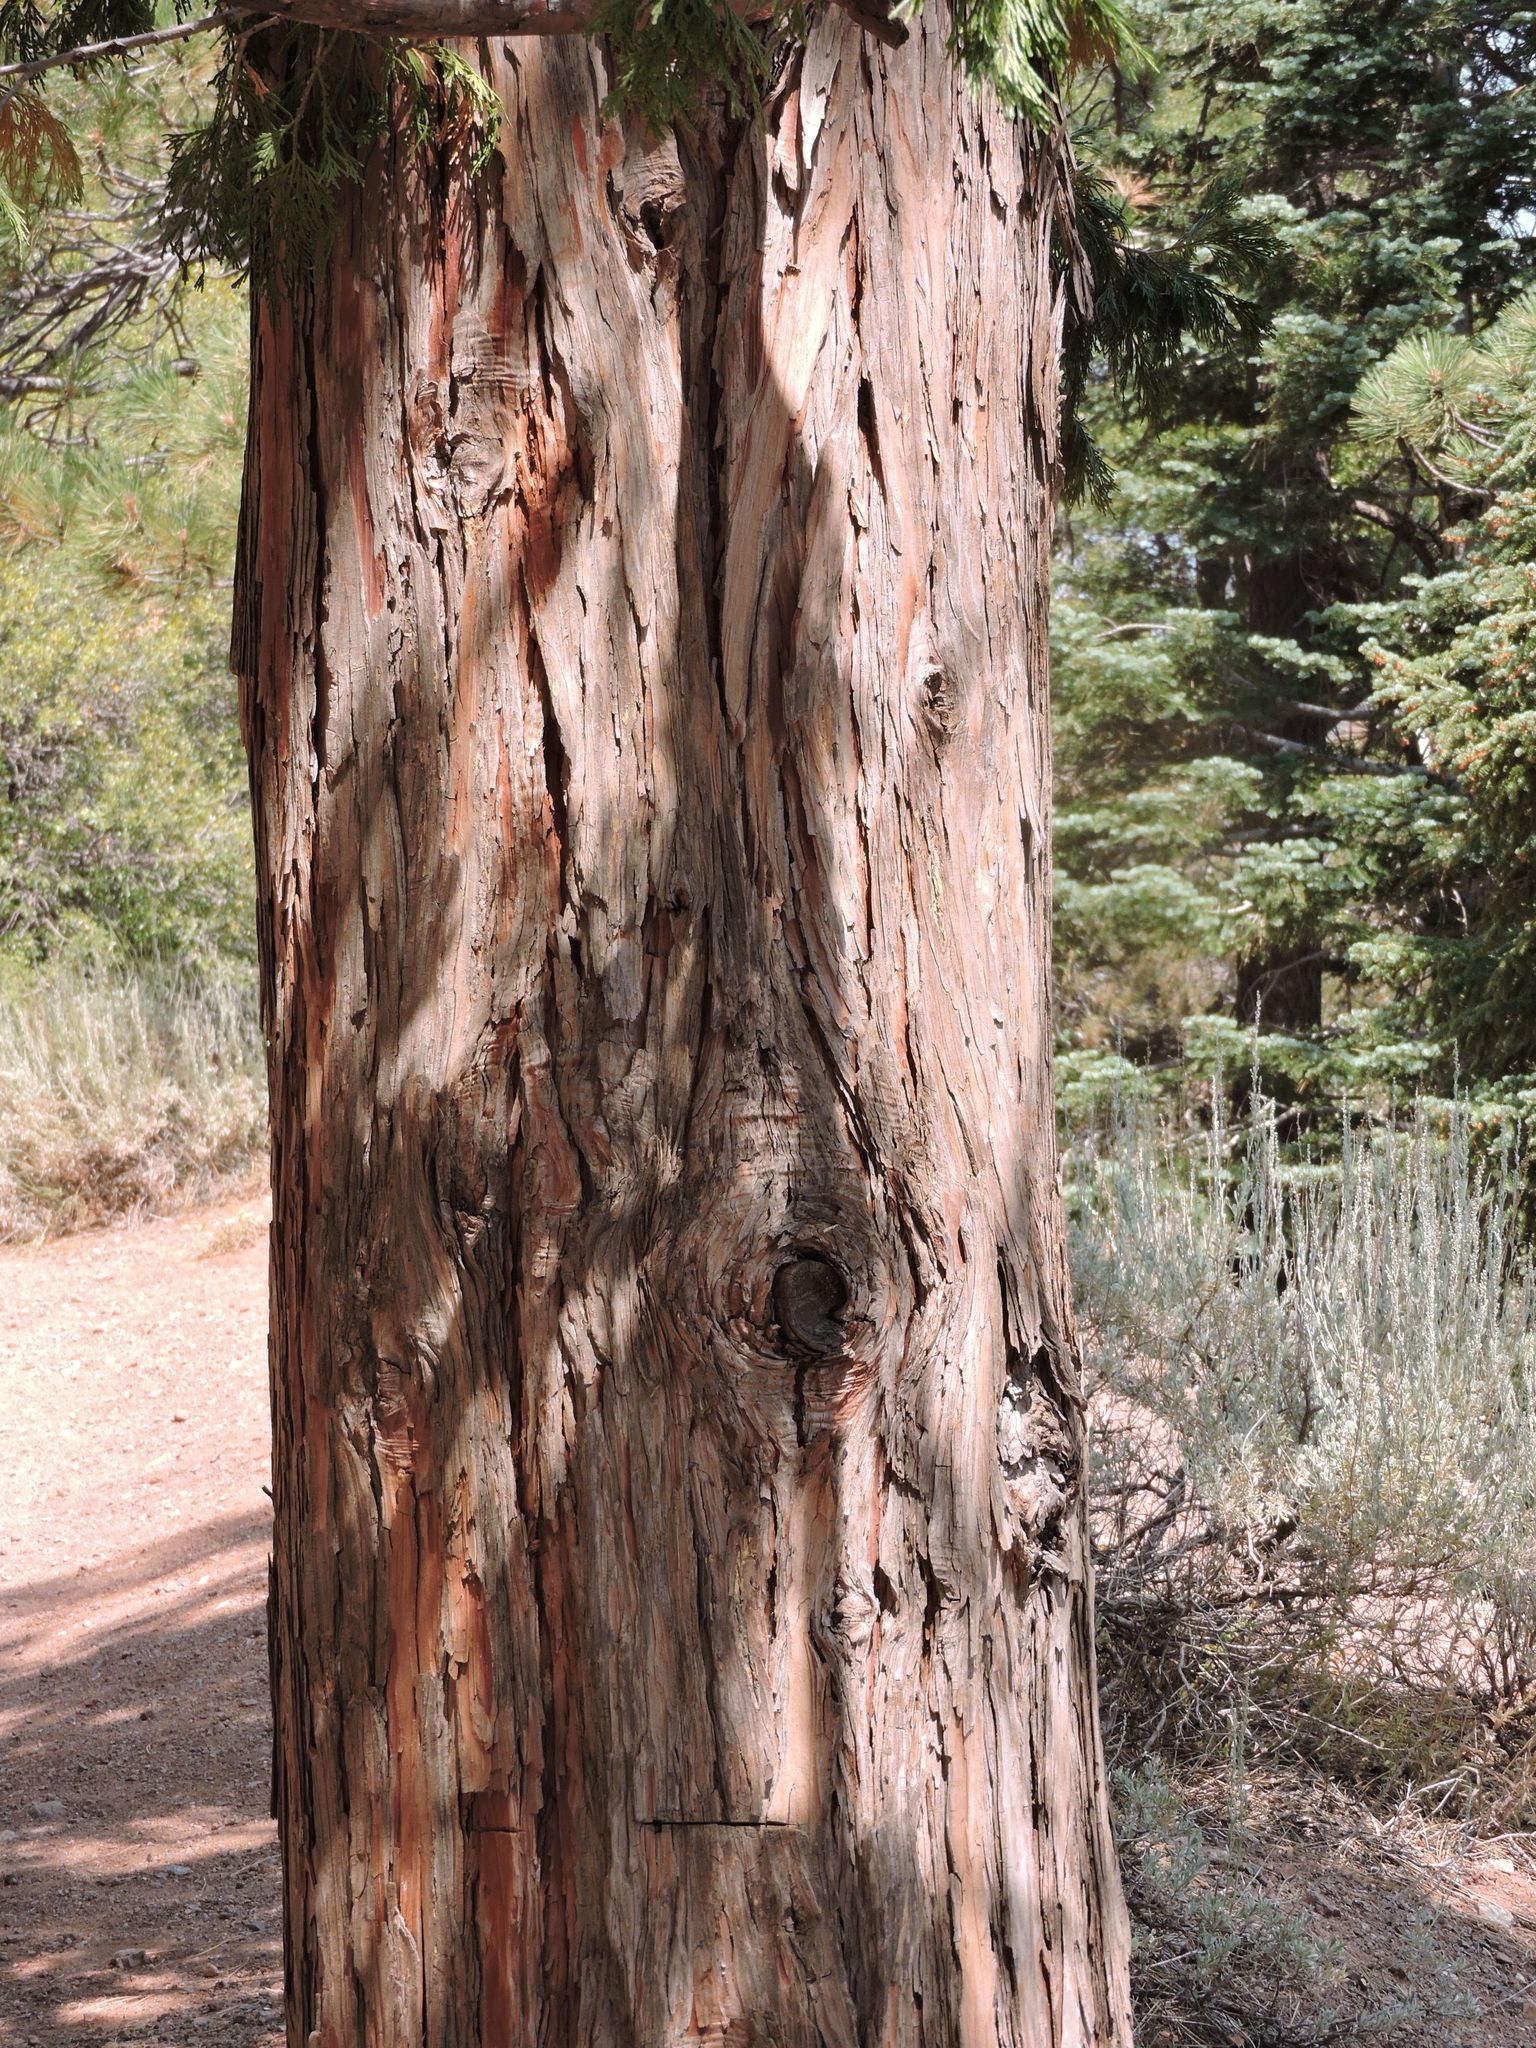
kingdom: Plantae
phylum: Tracheophyta
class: Pinopsida
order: Pinales
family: Cupressaceae
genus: Calocedrus
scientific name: Calocedrus decurrens
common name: Californian incense-cedar
